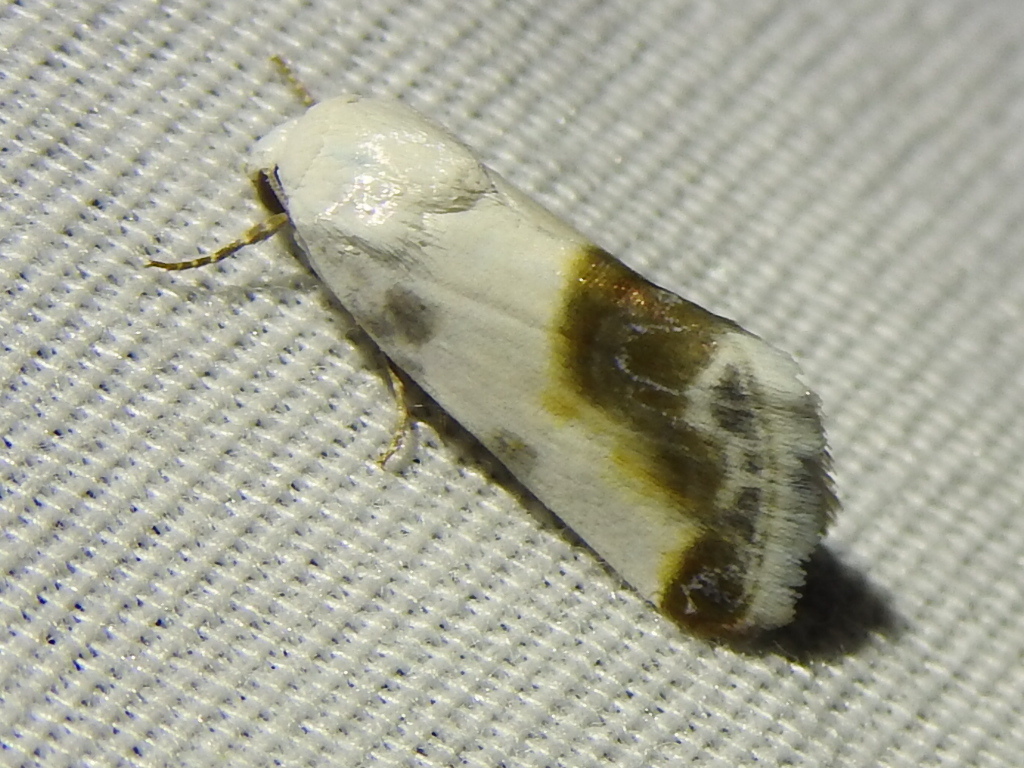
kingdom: Animalia
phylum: Arthropoda
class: Insecta
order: Lepidoptera
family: Noctuidae
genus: Acontia
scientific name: Acontia cretata
